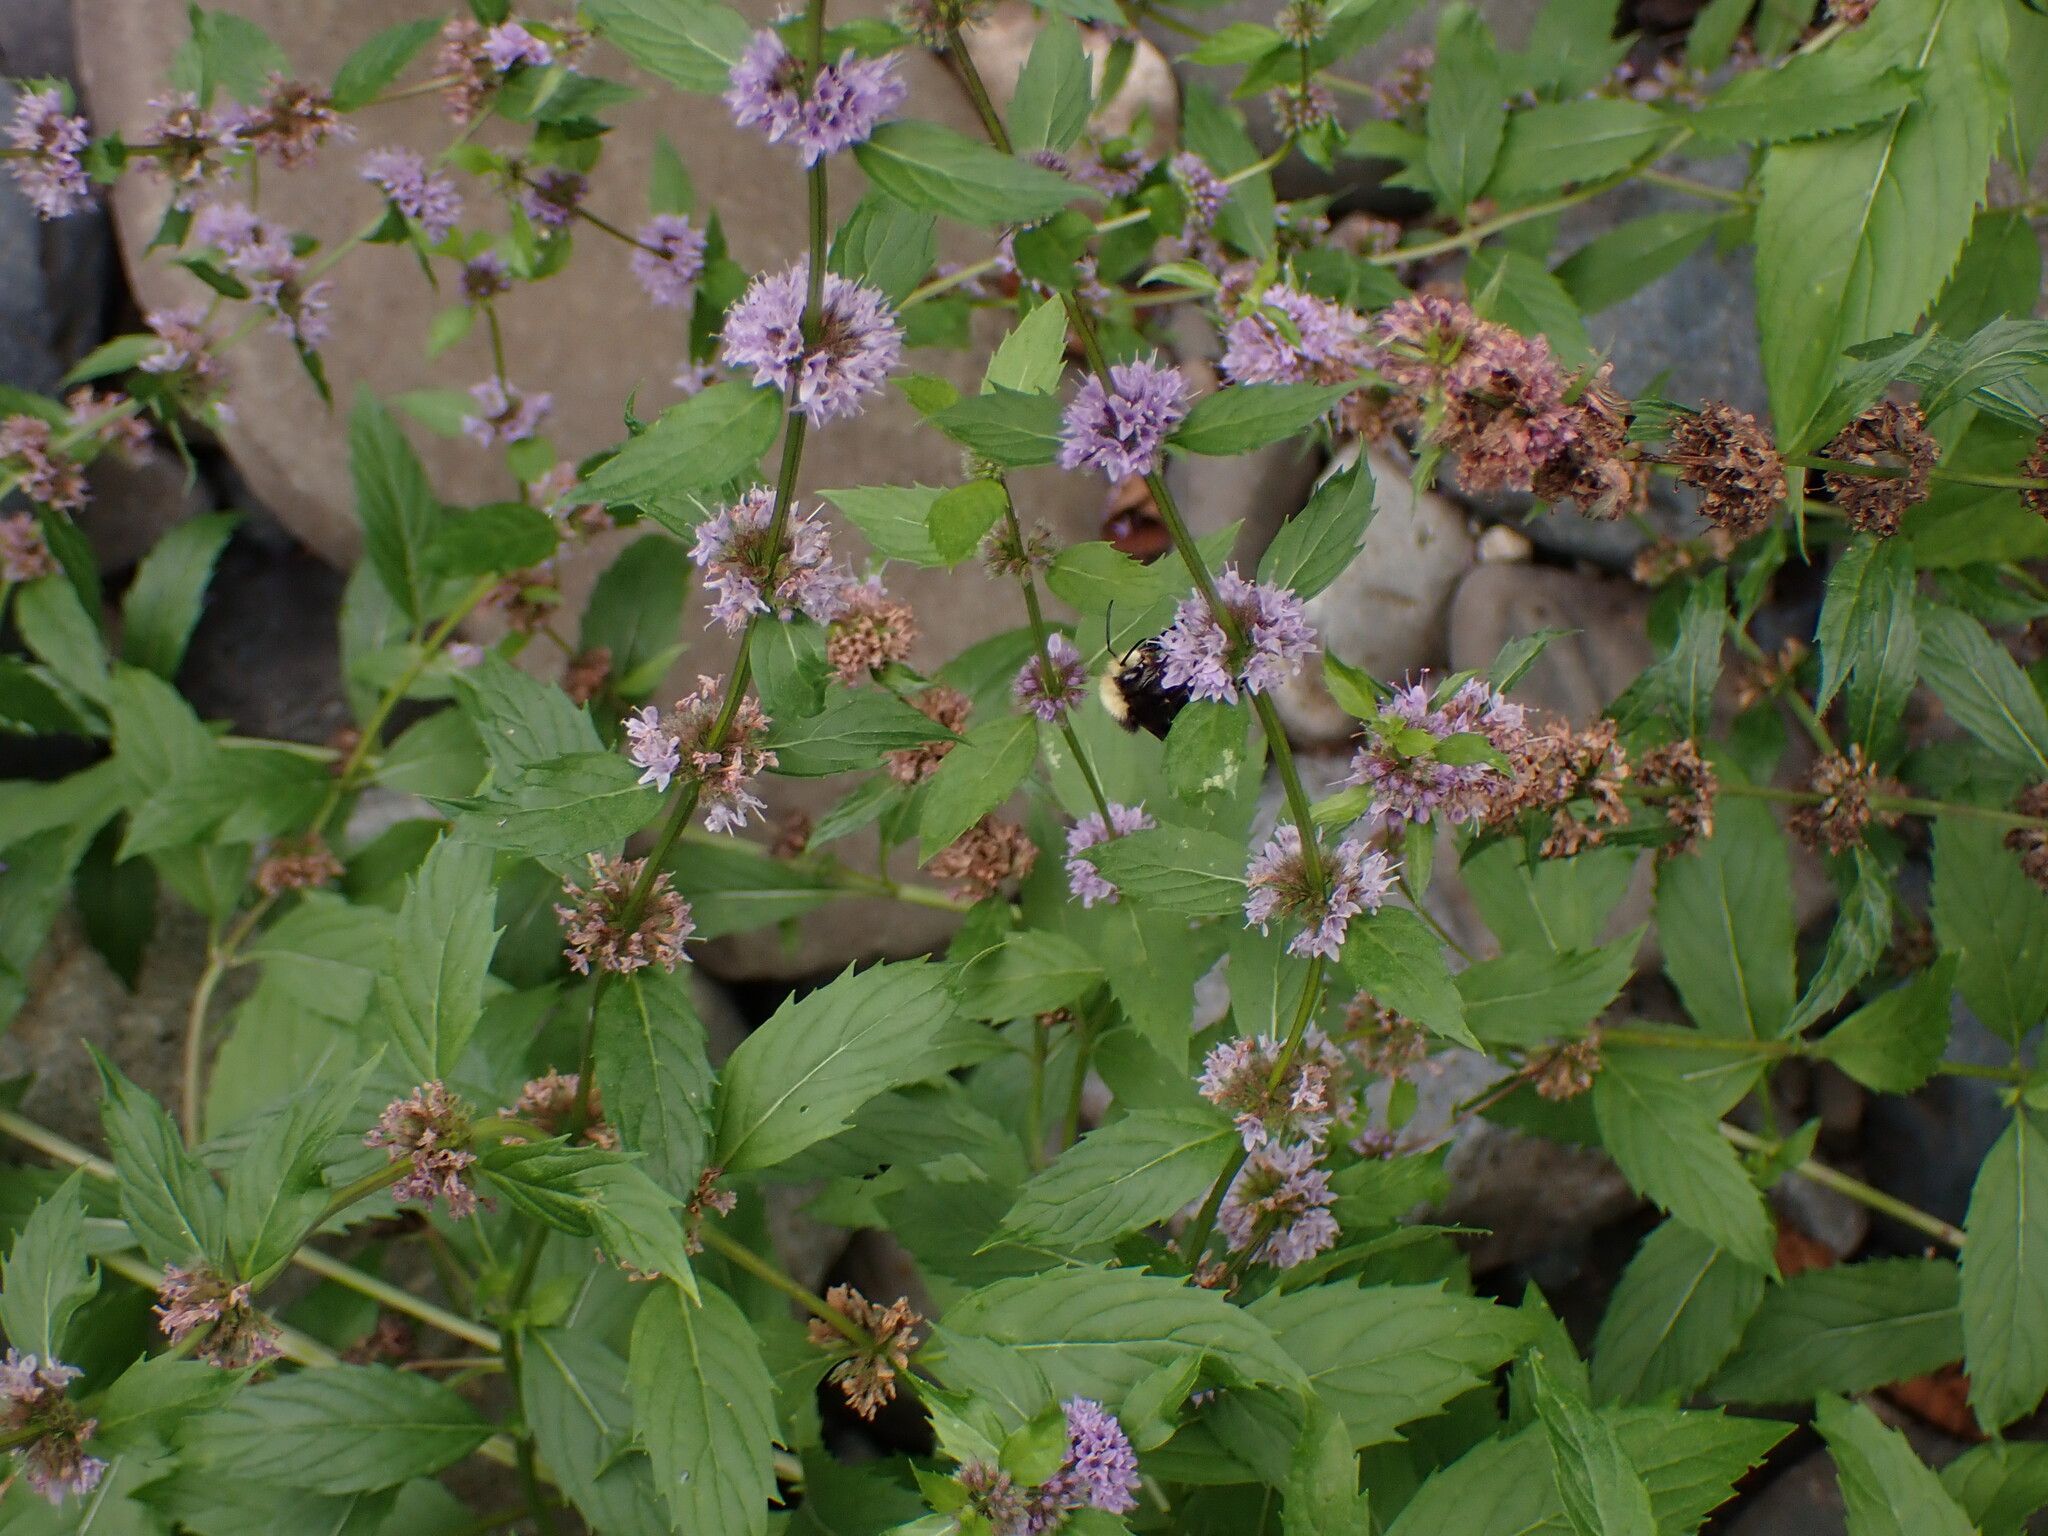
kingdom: Plantae
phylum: Tracheophyta
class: Magnoliopsida
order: Lamiales
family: Lamiaceae
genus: Mentha
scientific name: Mentha canadensis
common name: American corn mint
